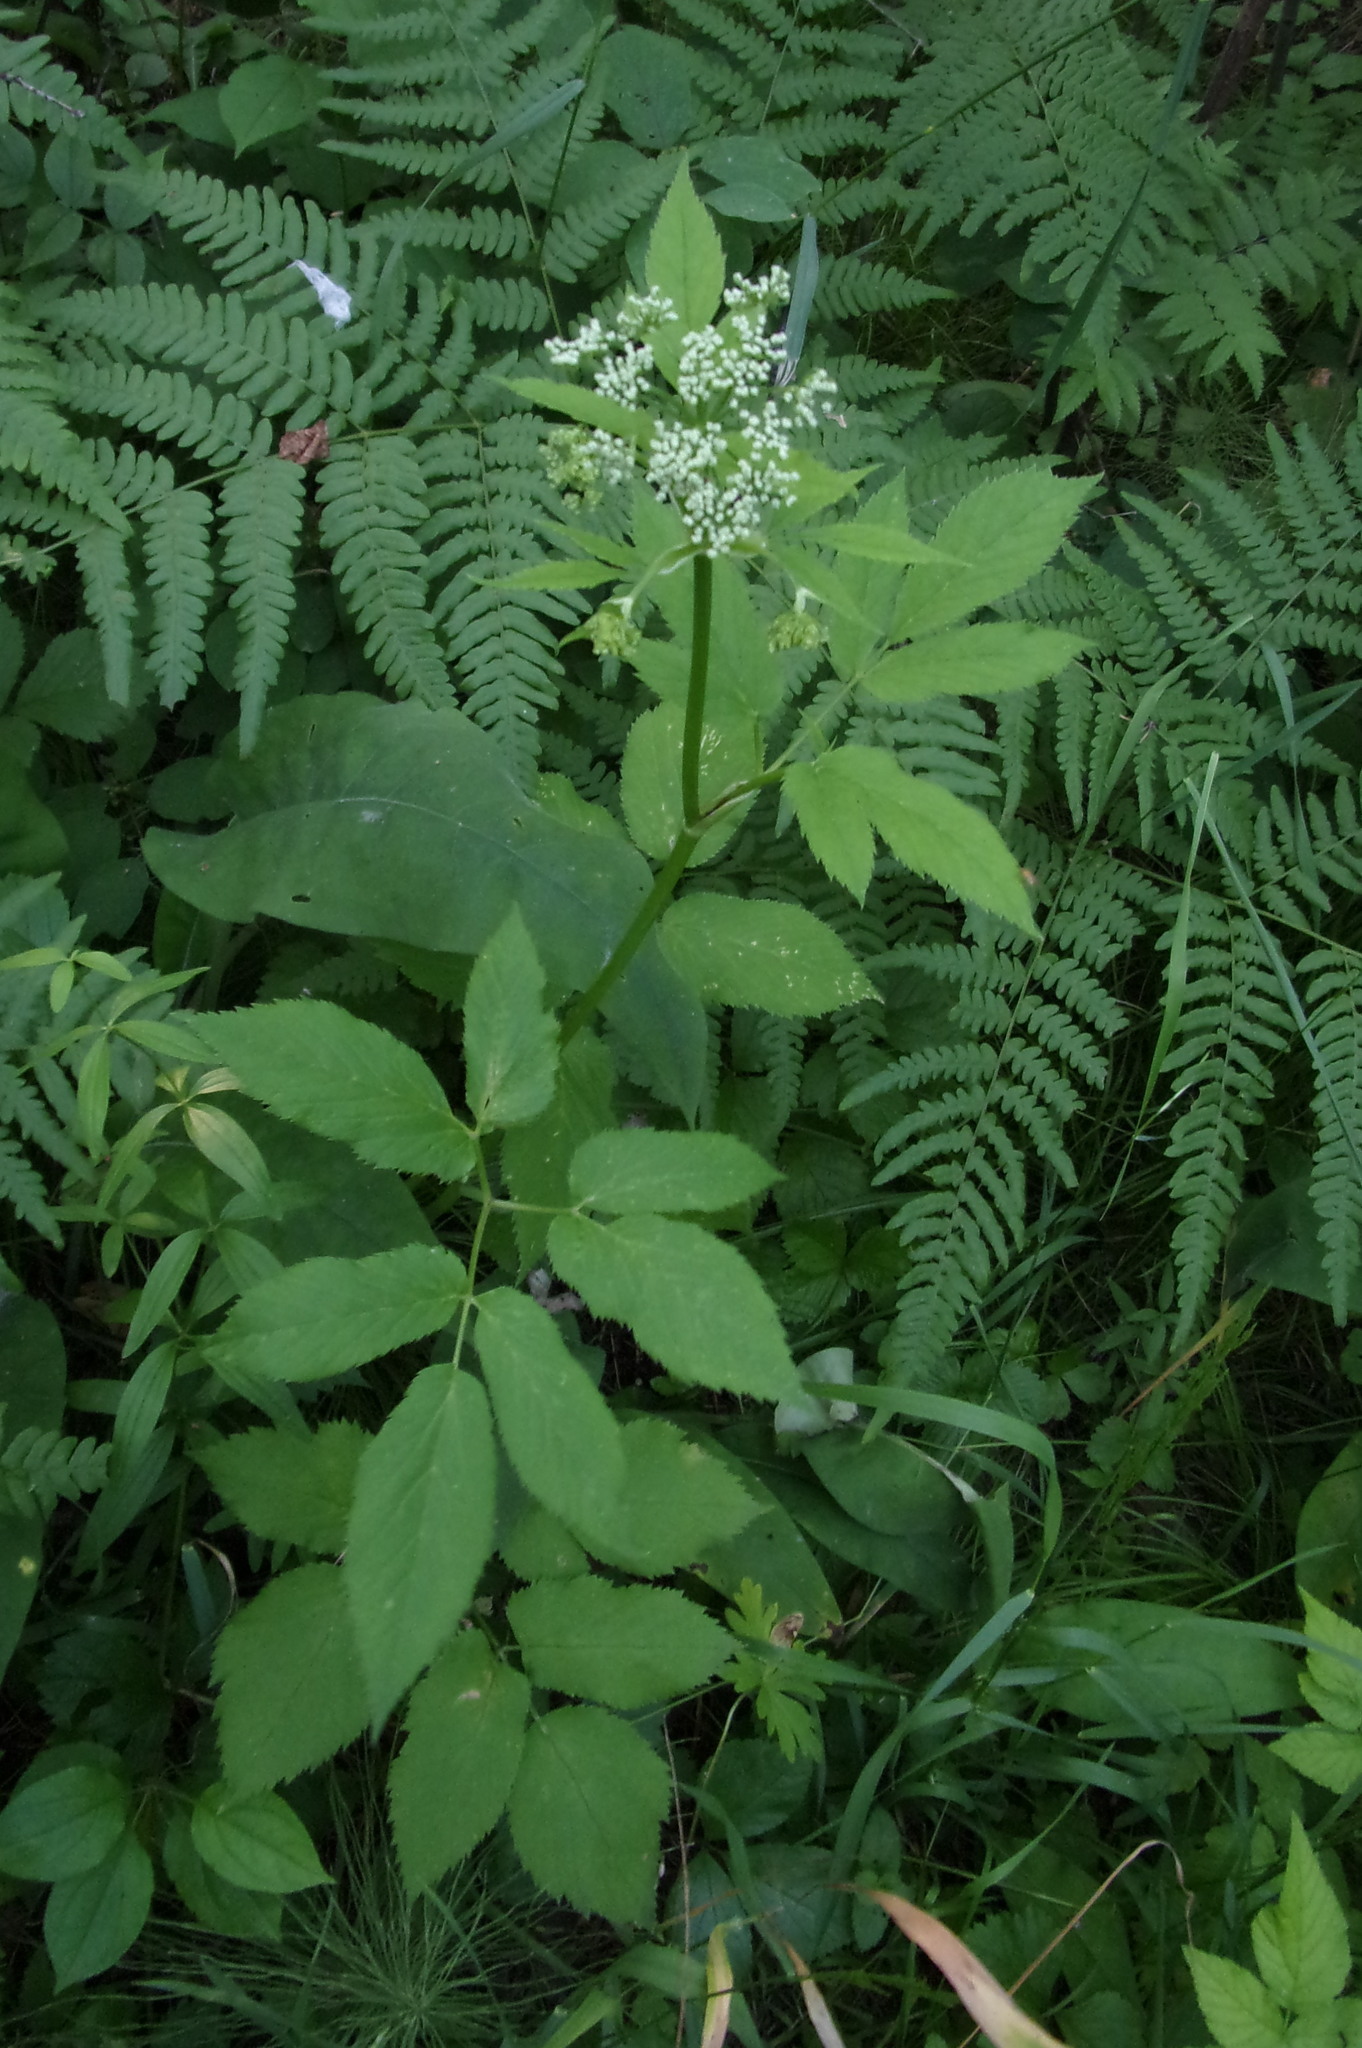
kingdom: Plantae
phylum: Tracheophyta
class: Magnoliopsida
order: Apiales
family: Apiaceae
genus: Aegopodium
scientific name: Aegopodium podagraria
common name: Ground-elder
